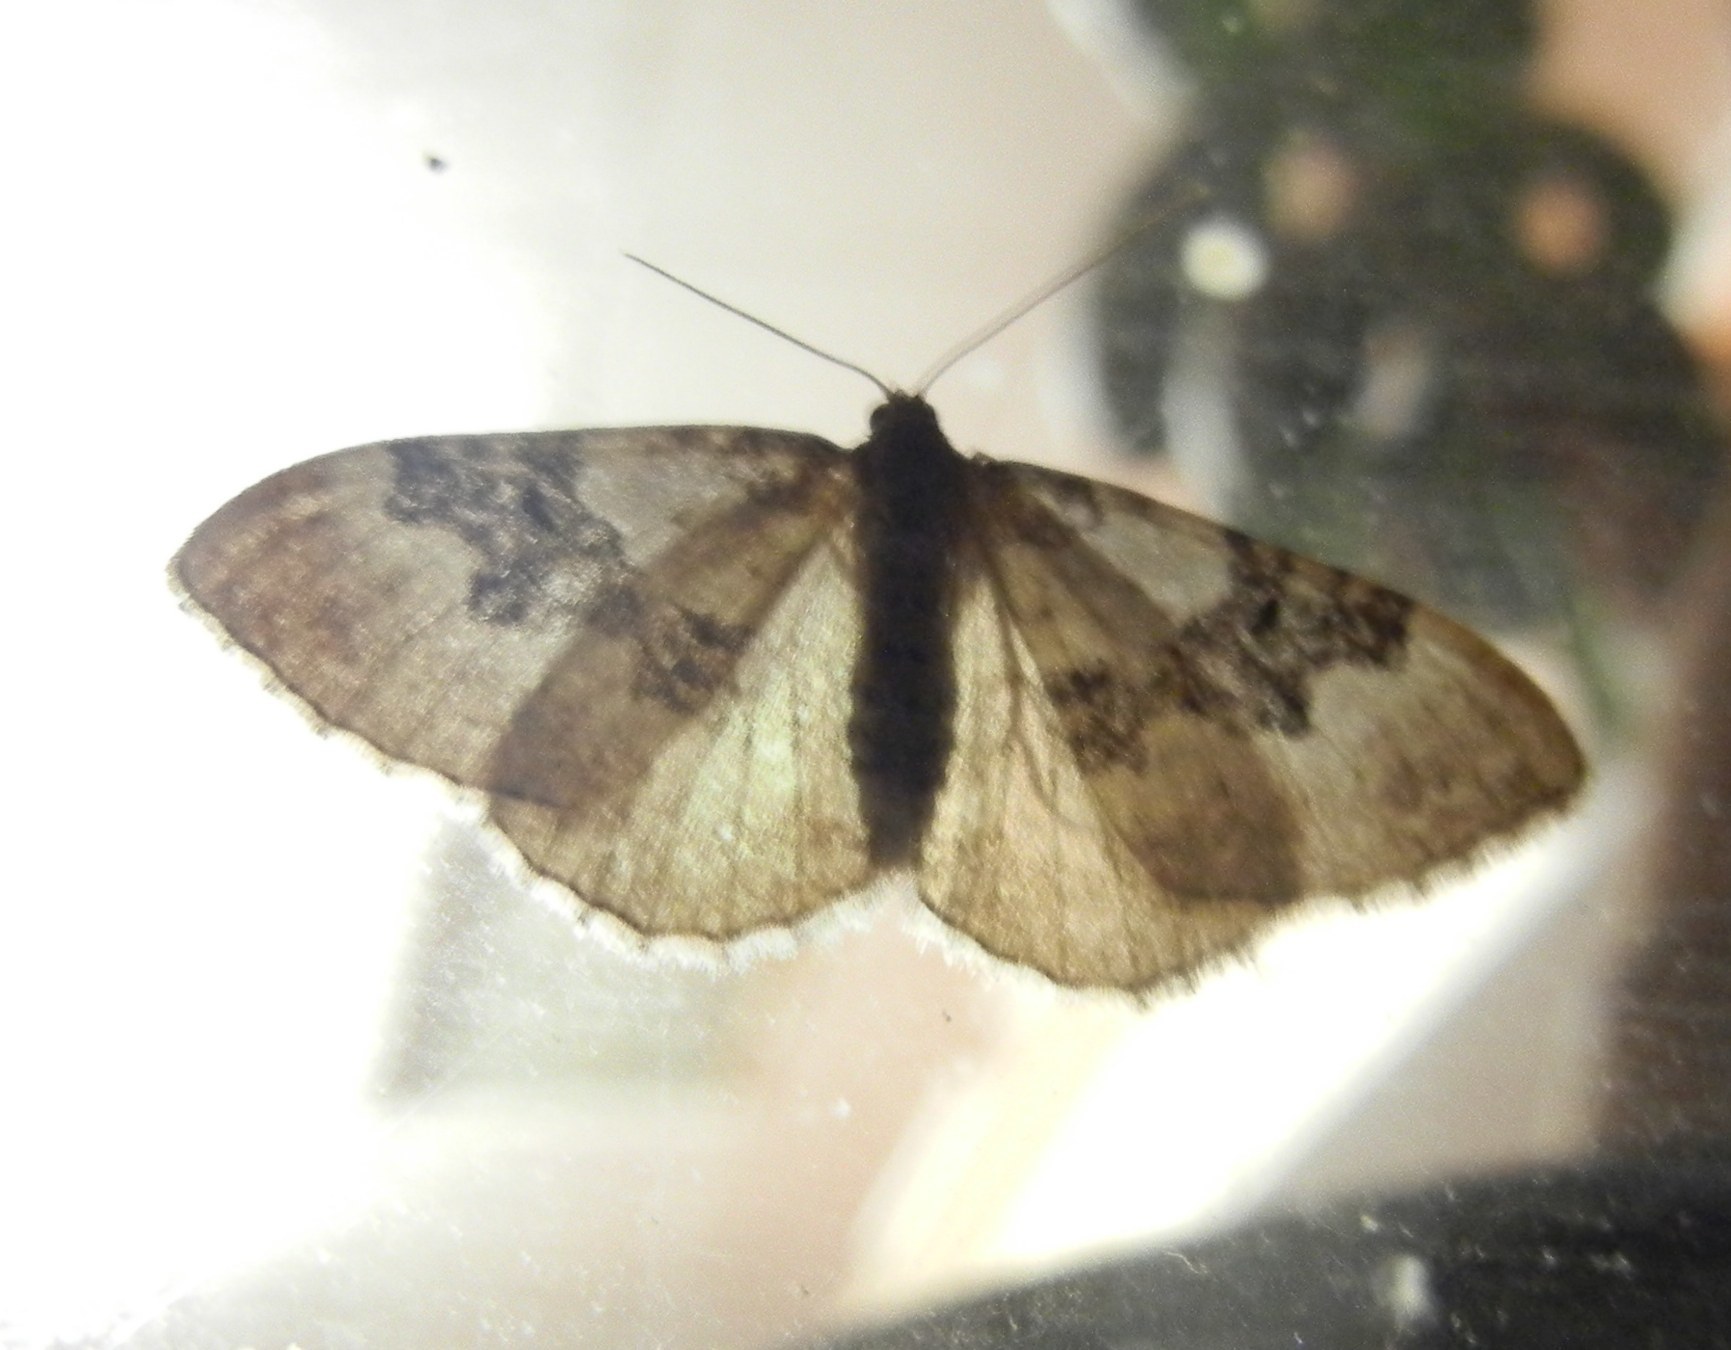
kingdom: Animalia
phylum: Arthropoda
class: Insecta
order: Lepidoptera
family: Geometridae
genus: Xanthorhoe
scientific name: Xanthorhoe montanata
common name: Silver-ground carpet
